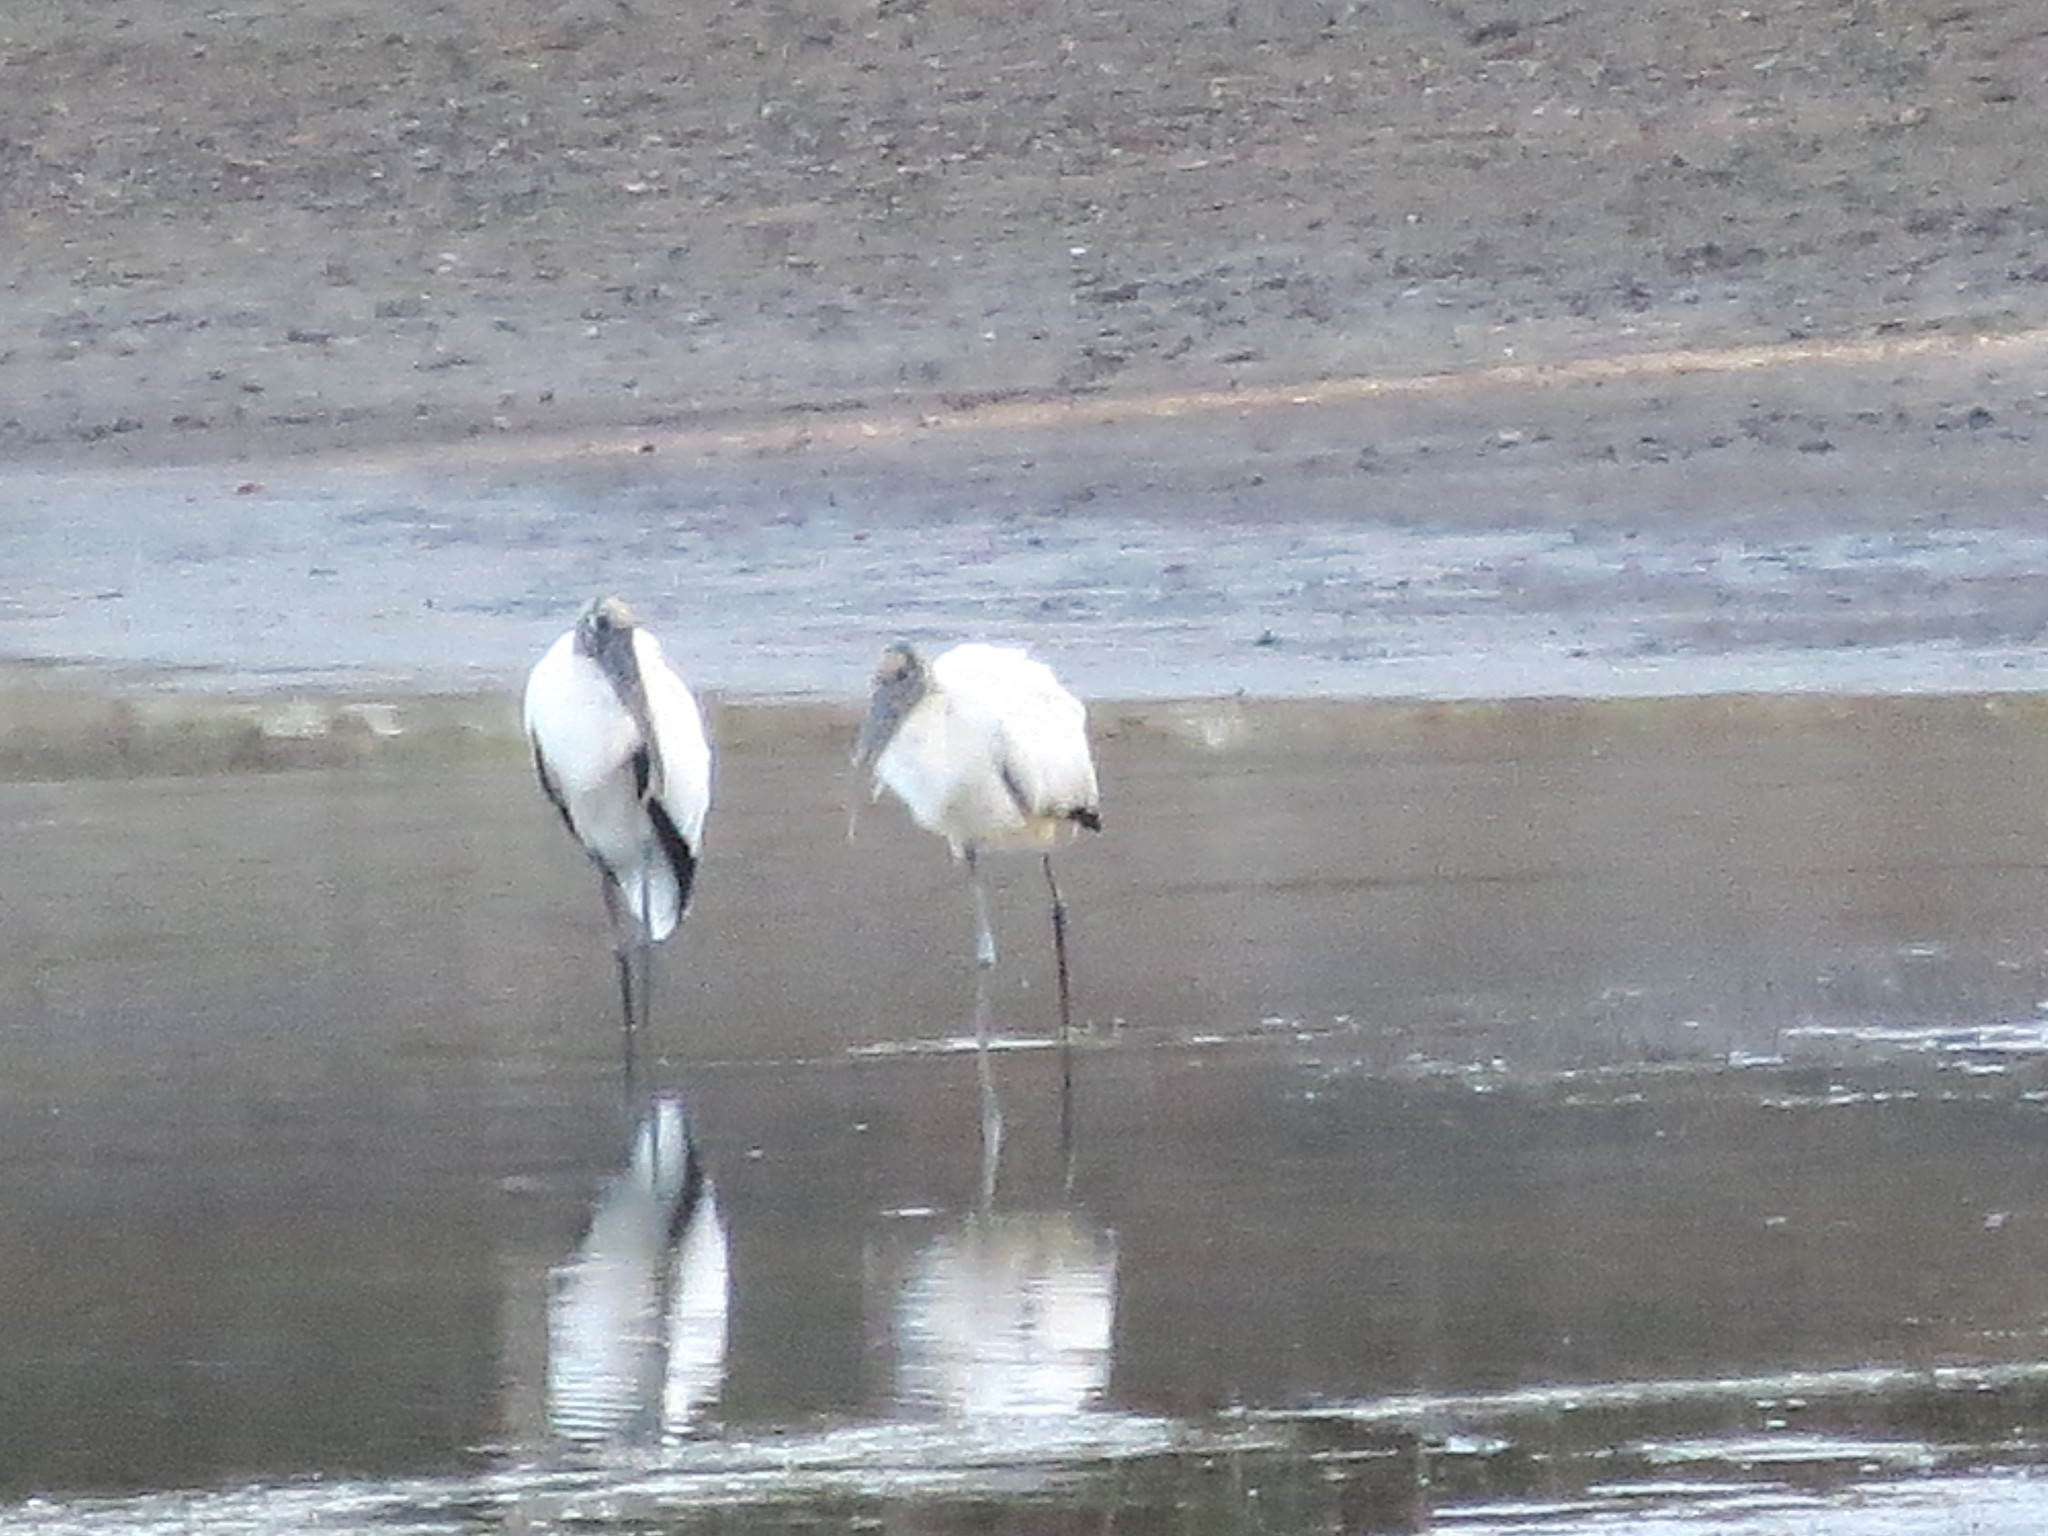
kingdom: Animalia
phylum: Chordata
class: Aves
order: Ciconiiformes
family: Ciconiidae
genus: Mycteria
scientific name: Mycteria americana
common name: Wood stork
